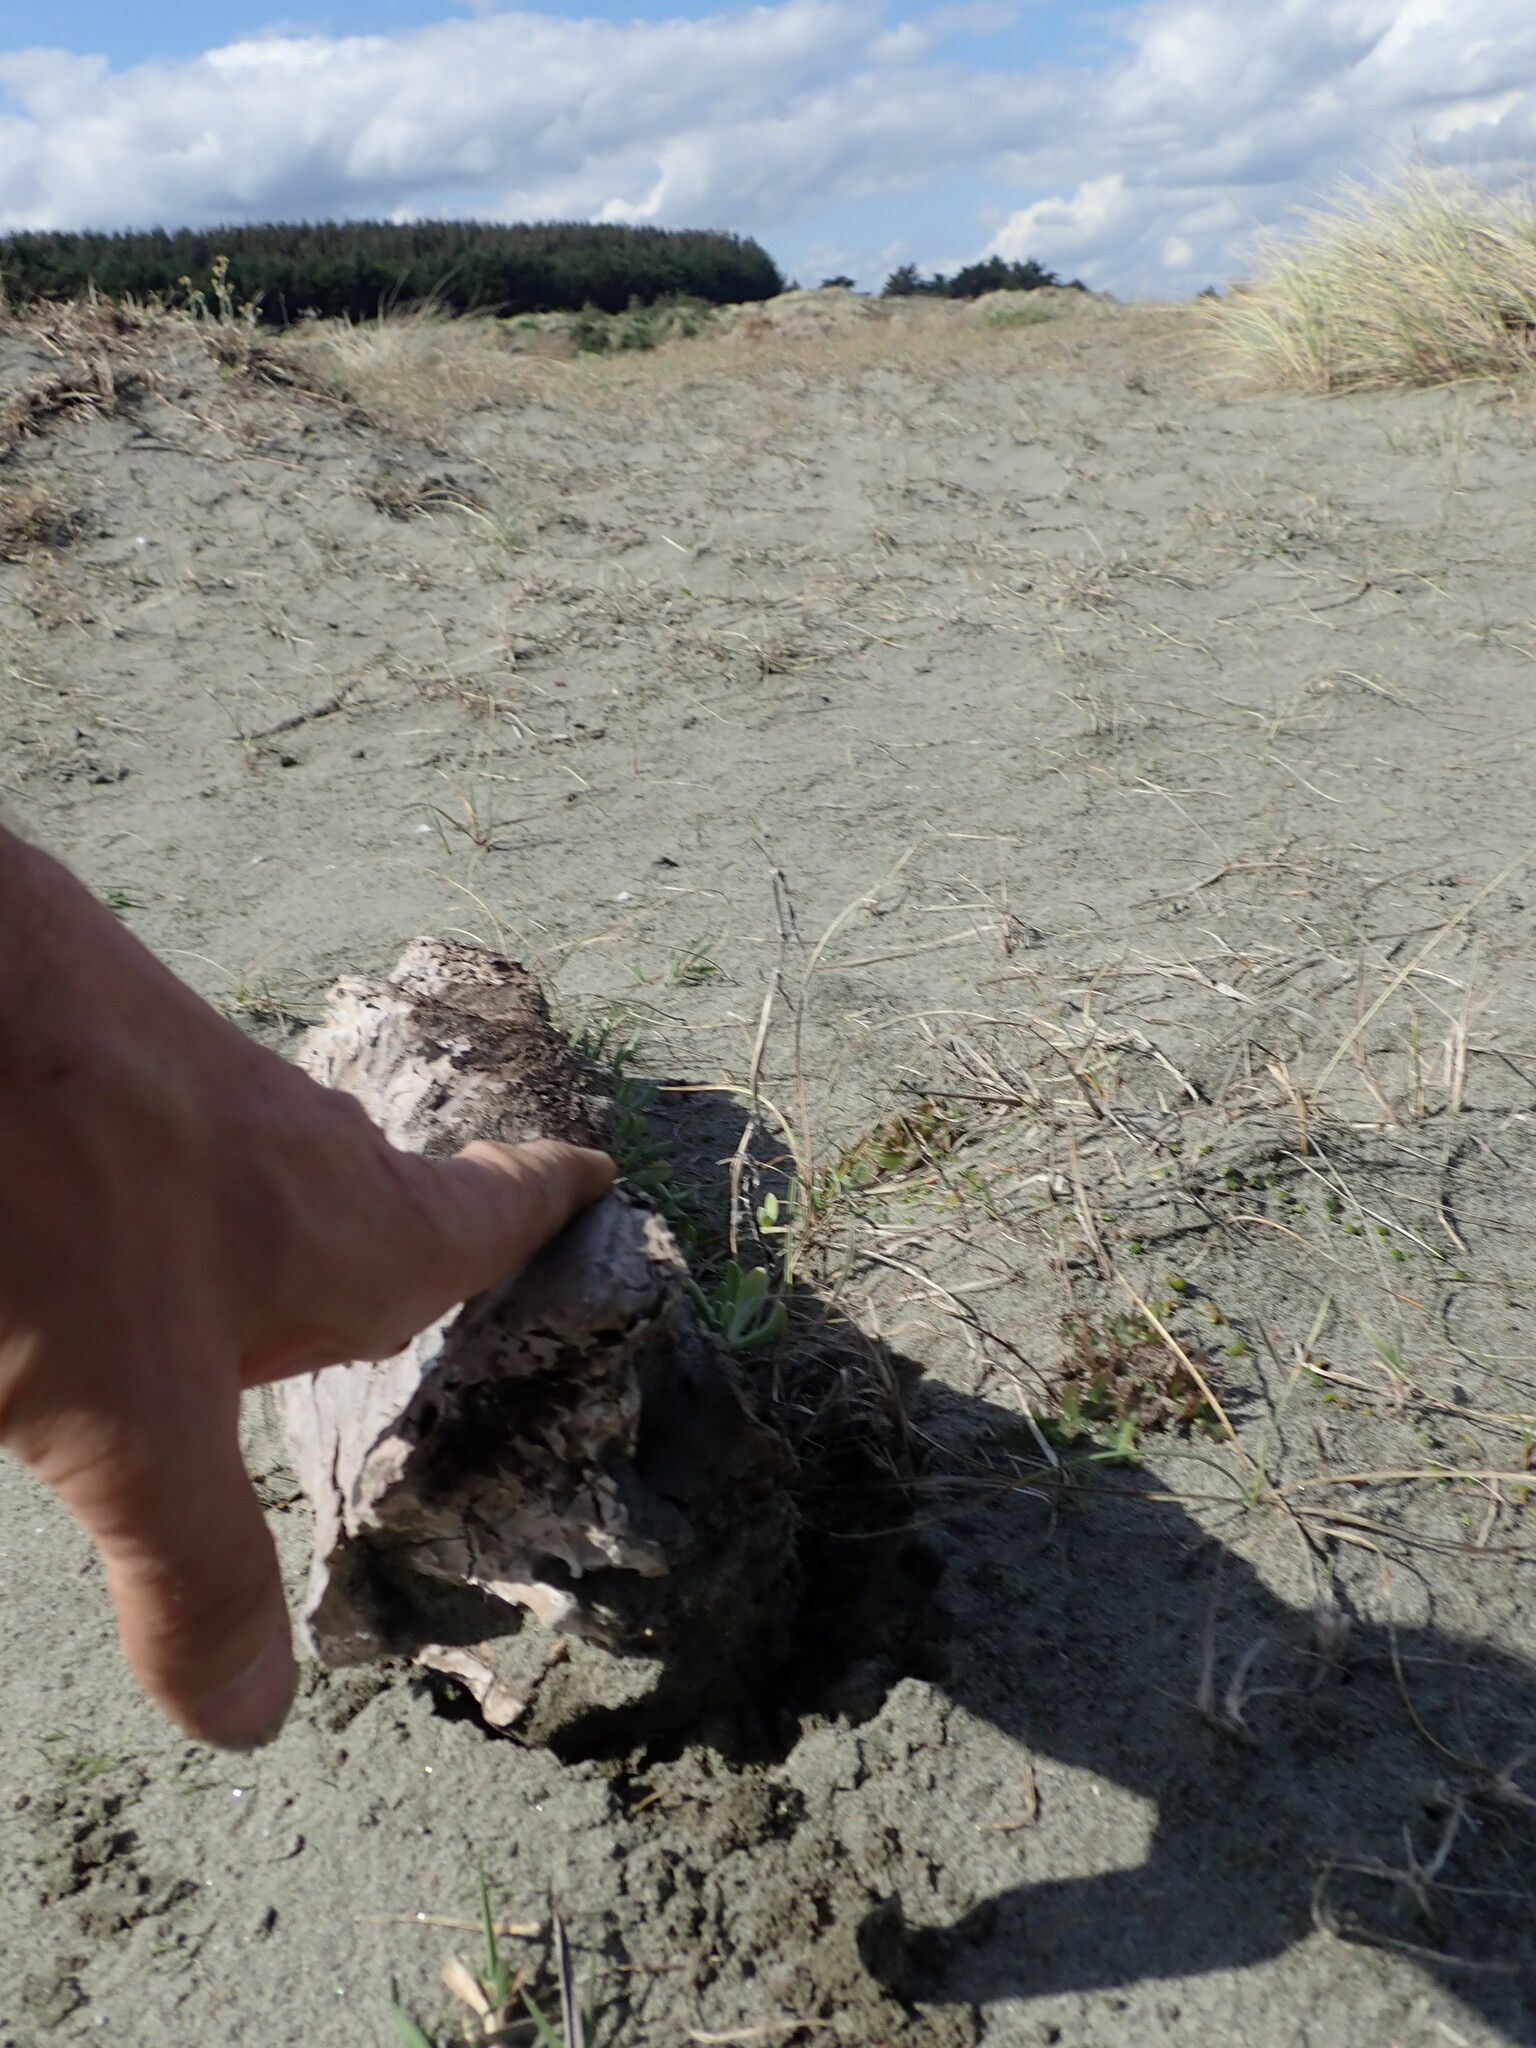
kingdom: Animalia
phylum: Arthropoda
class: Arachnida
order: Araneae
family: Theridiidae
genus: Steatoda
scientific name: Steatoda capensis
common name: Cobweb weaver
